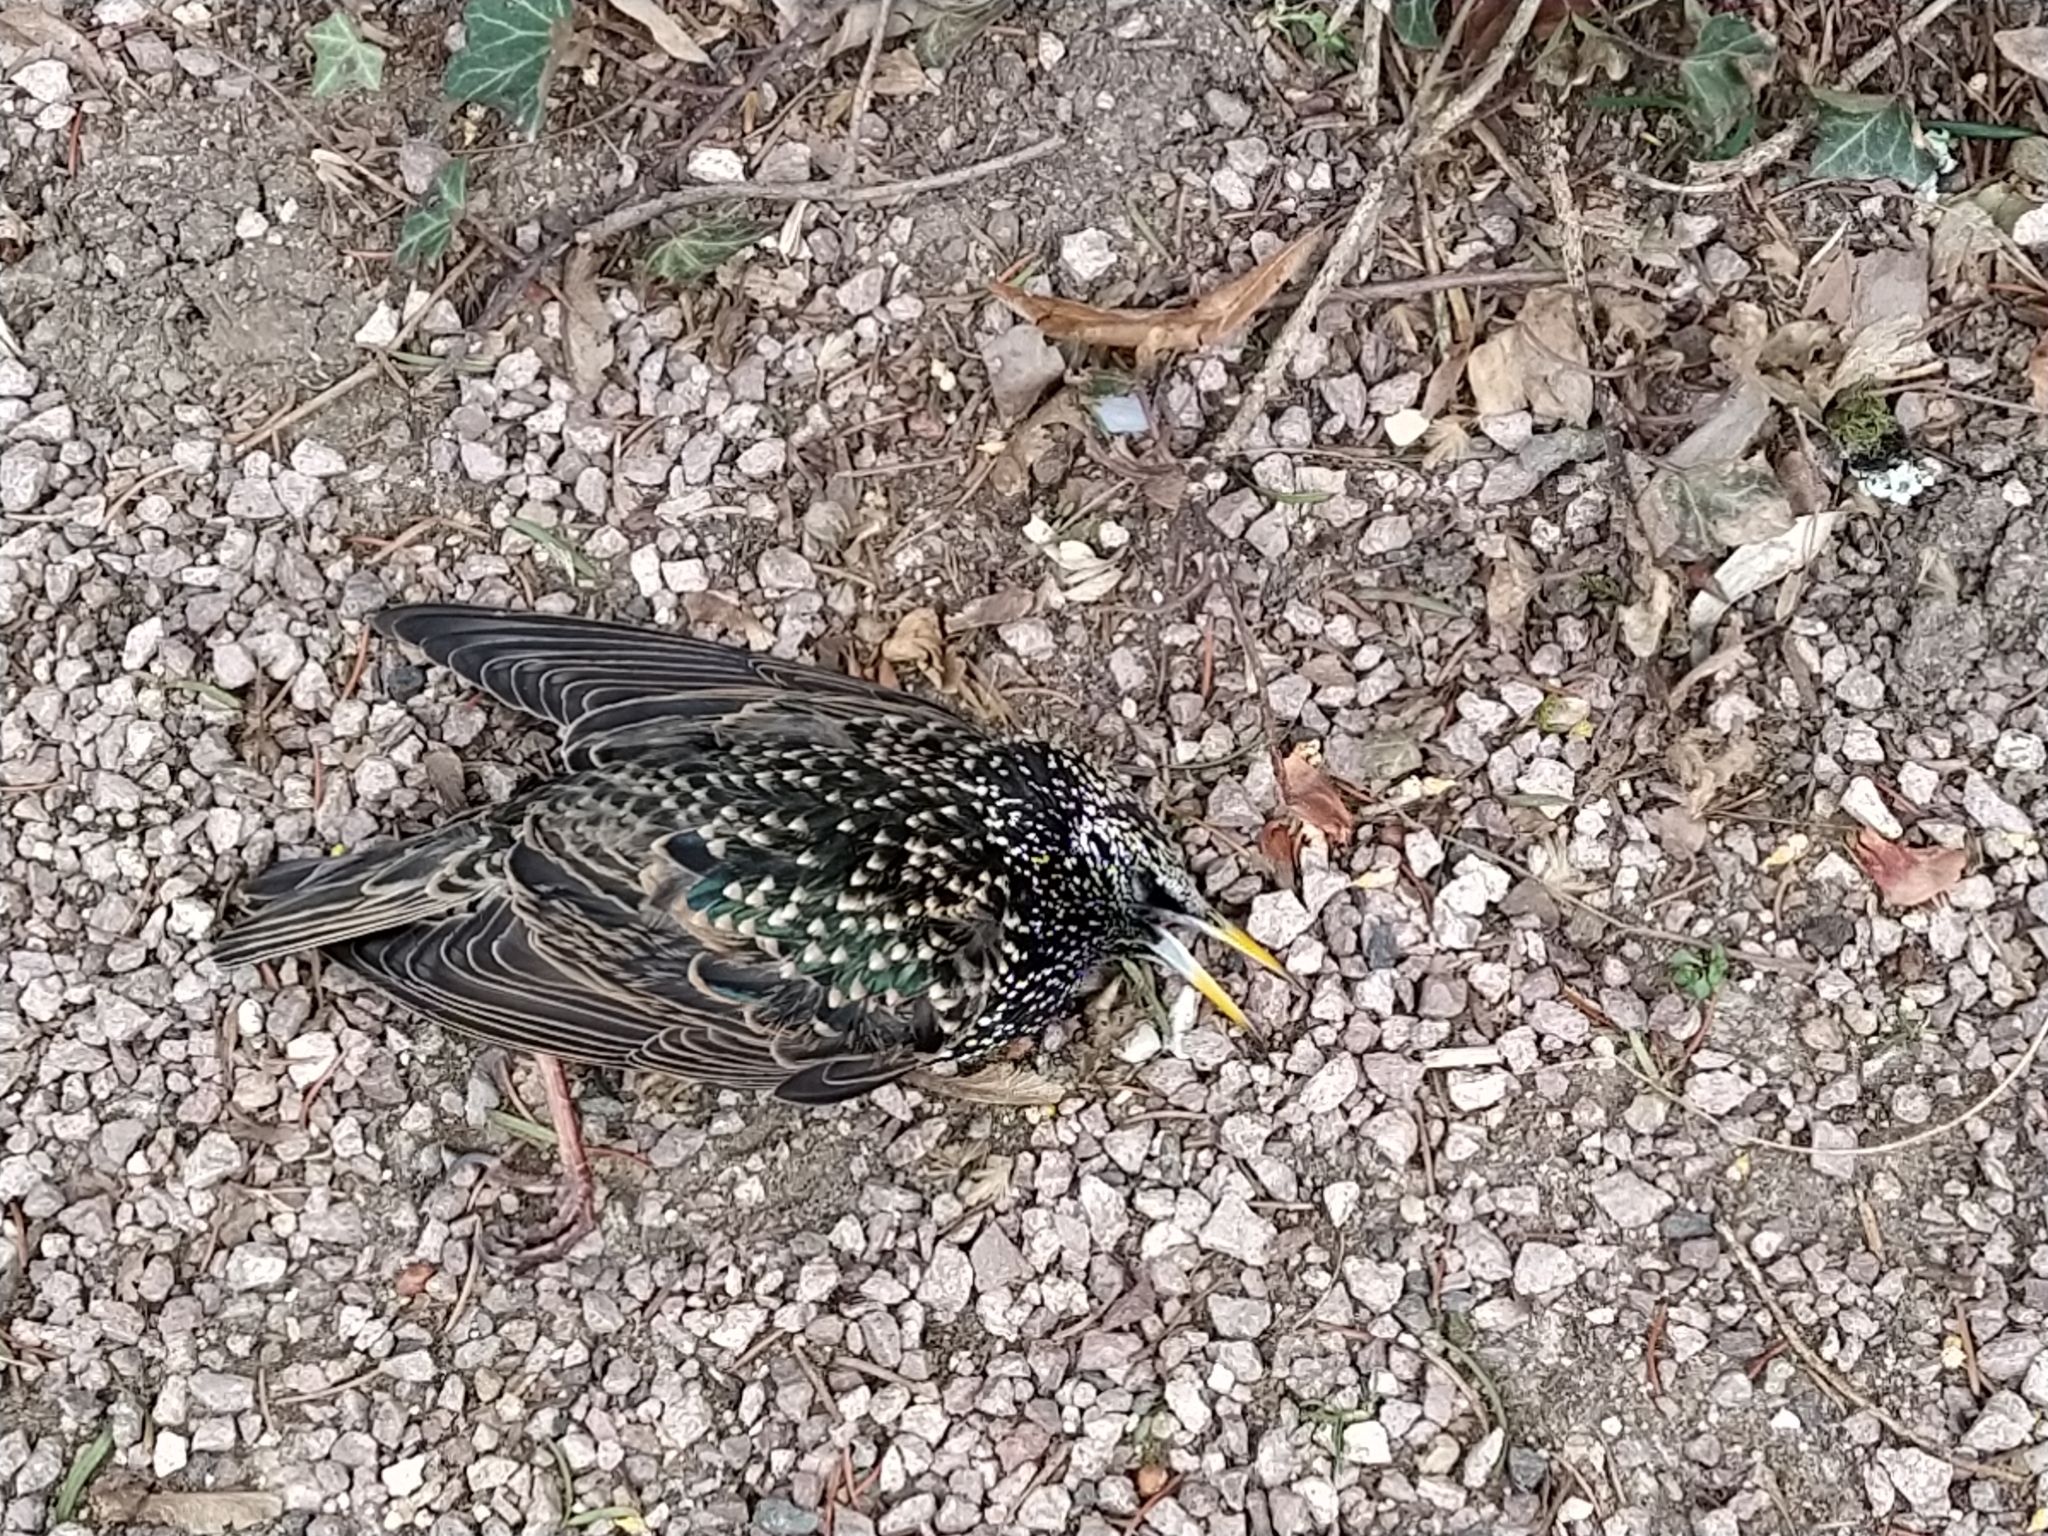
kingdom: Animalia
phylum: Chordata
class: Aves
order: Passeriformes
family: Sturnidae
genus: Sturnus
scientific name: Sturnus vulgaris
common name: Common starling
